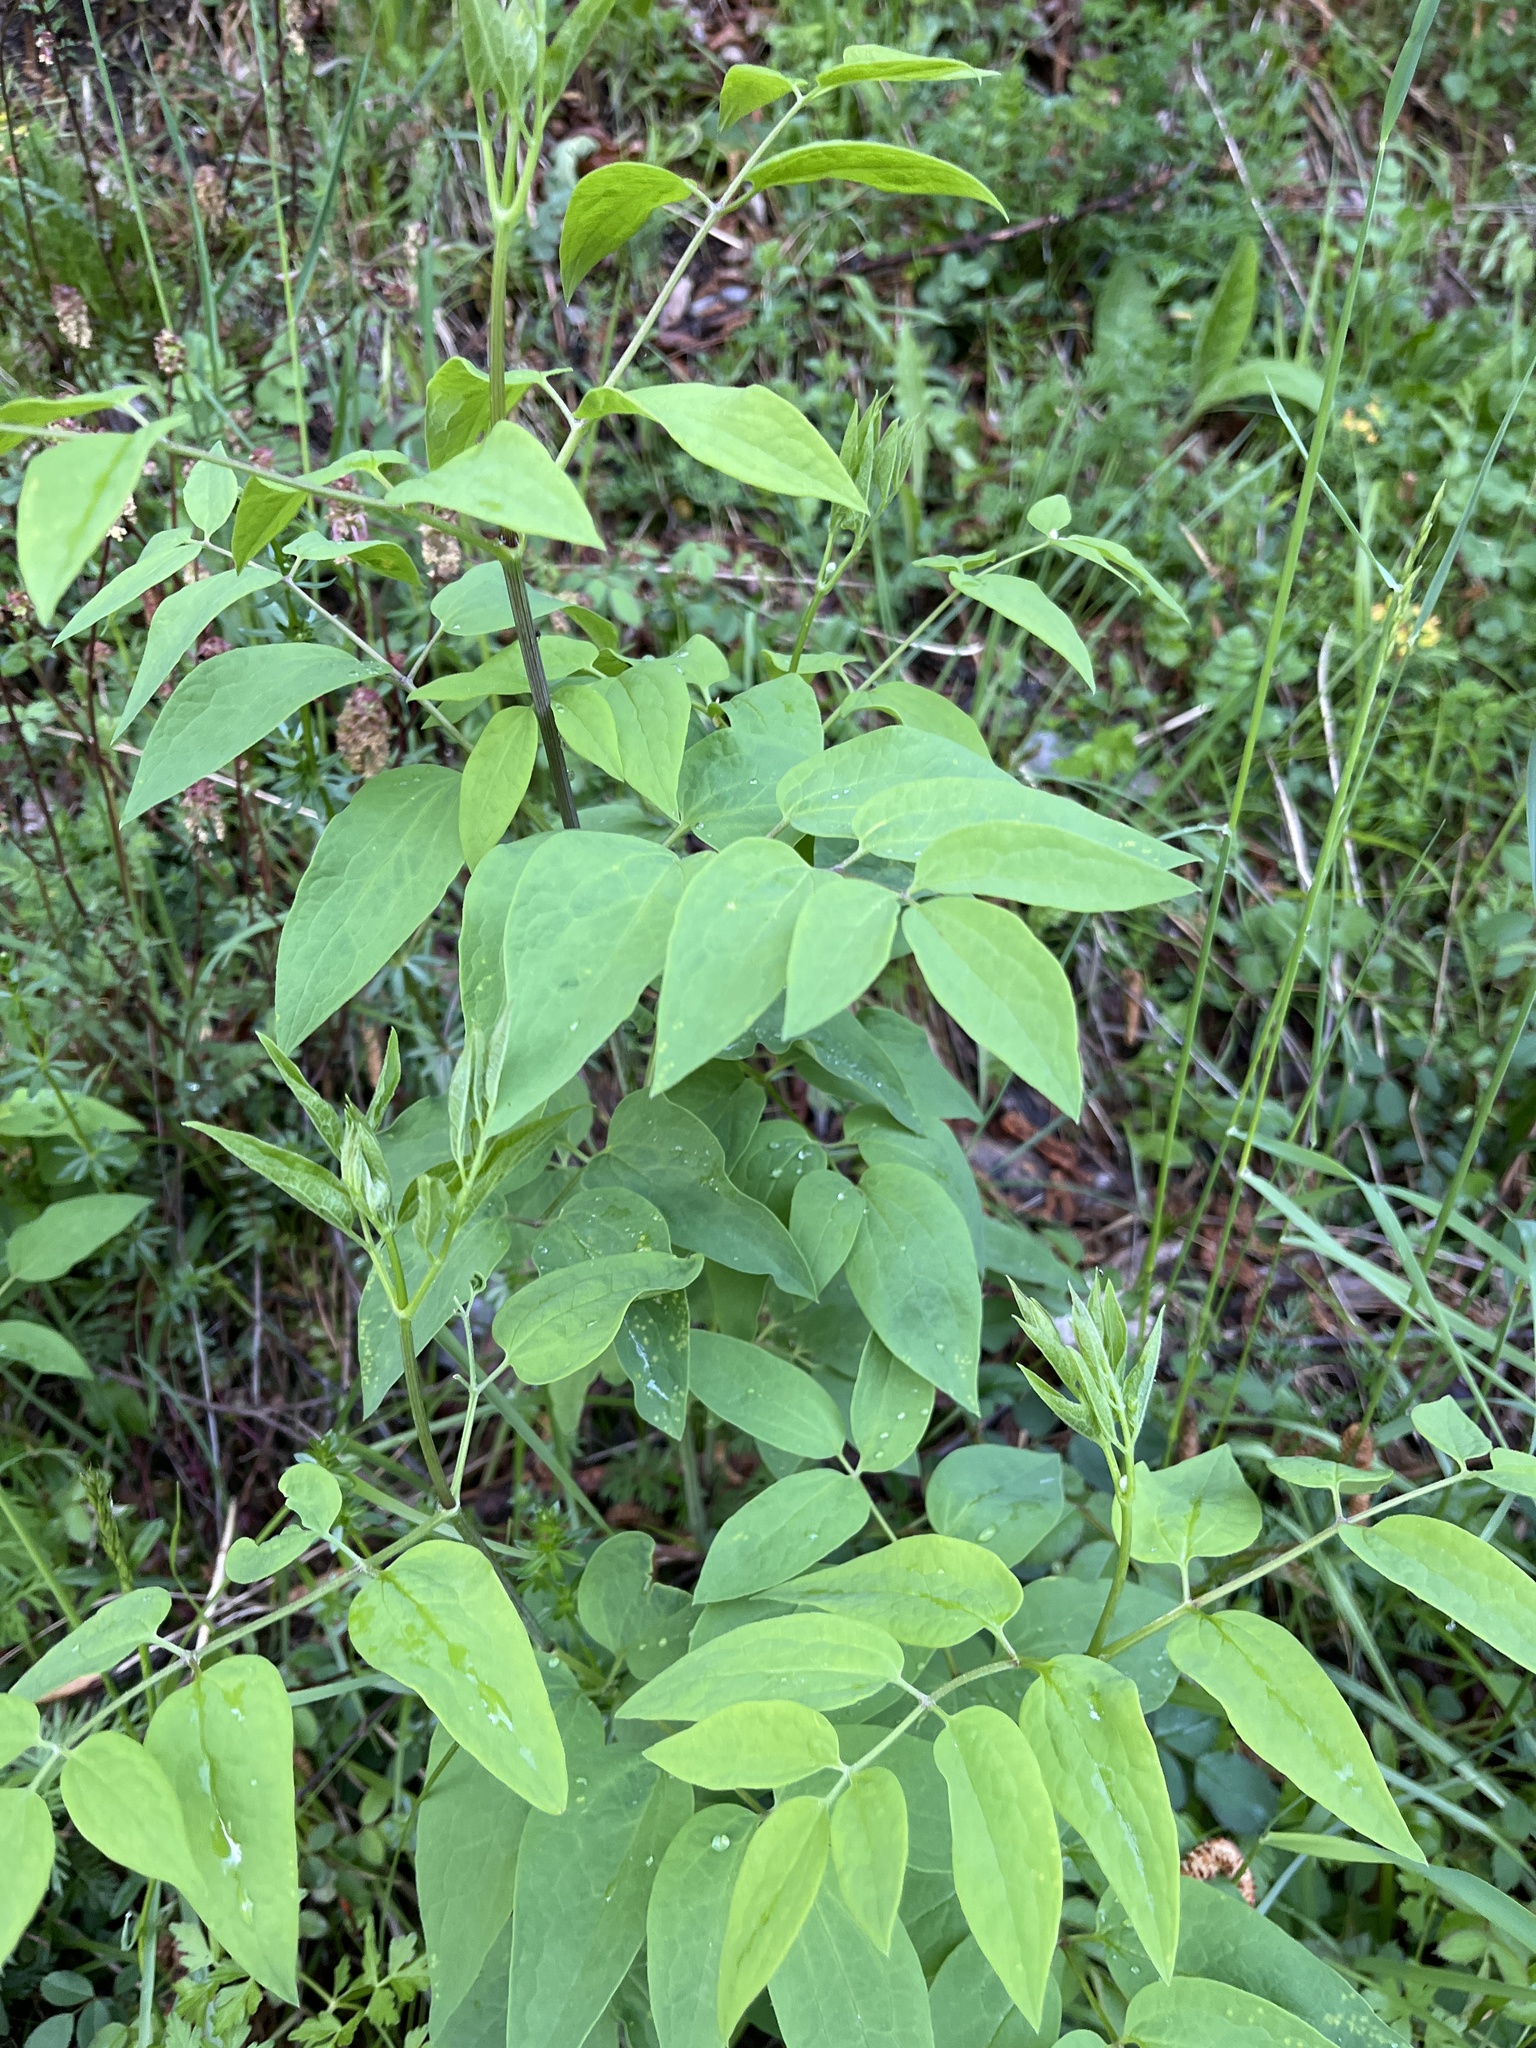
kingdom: Plantae
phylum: Tracheophyta
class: Magnoliopsida
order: Ranunculales
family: Ranunculaceae
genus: Clematis
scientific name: Clematis recta
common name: Ground clematis
